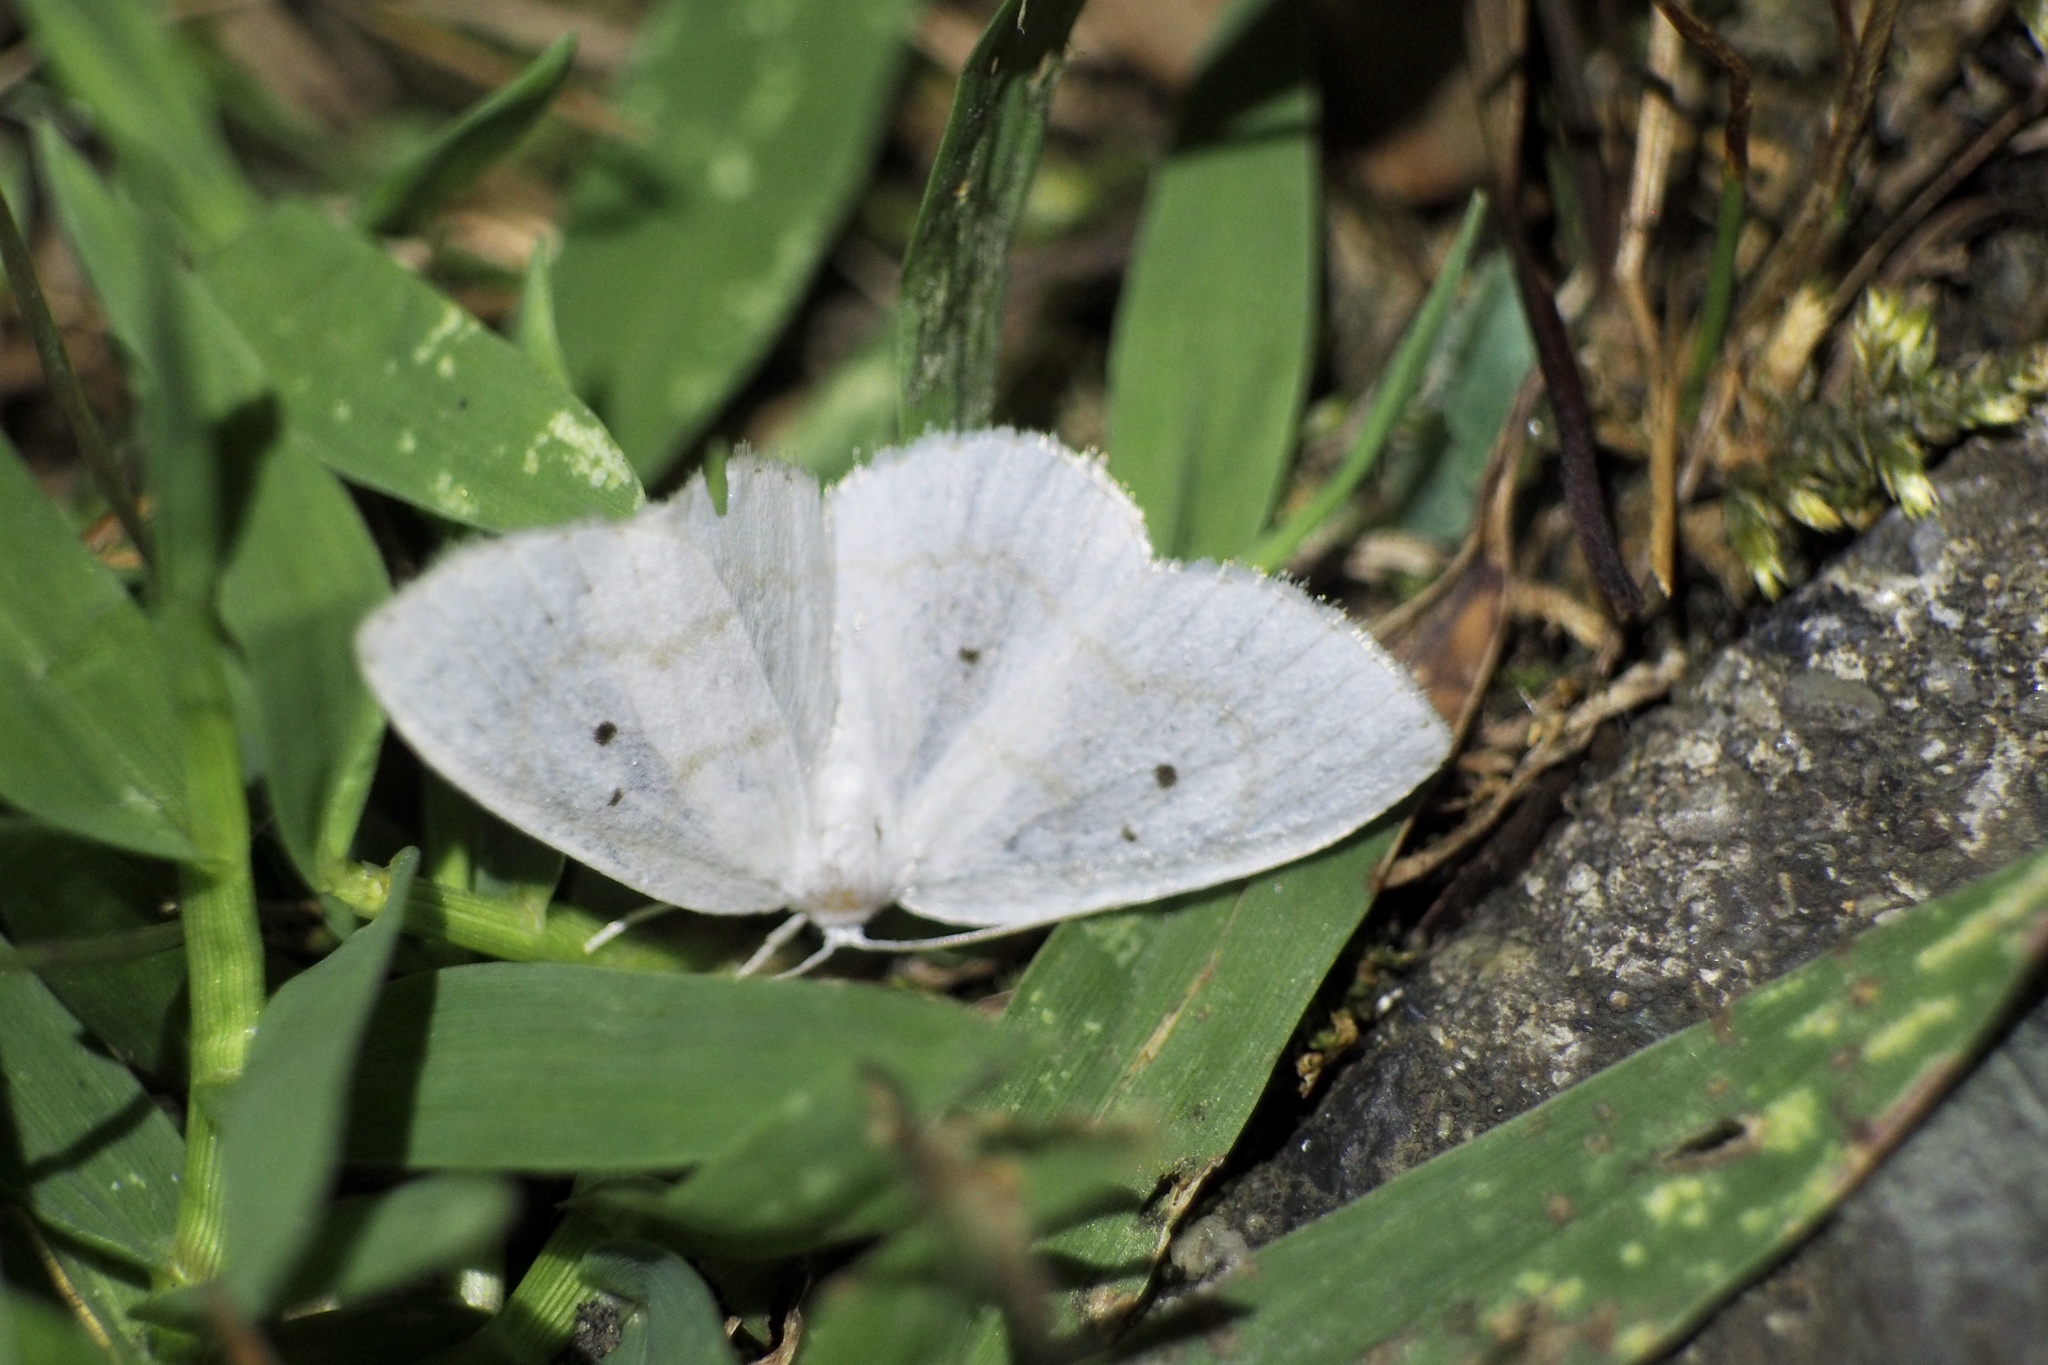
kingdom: Animalia
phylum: Arthropoda
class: Insecta
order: Lepidoptera
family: Drepanidae
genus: Ditrigona
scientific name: Ditrigona virgo
